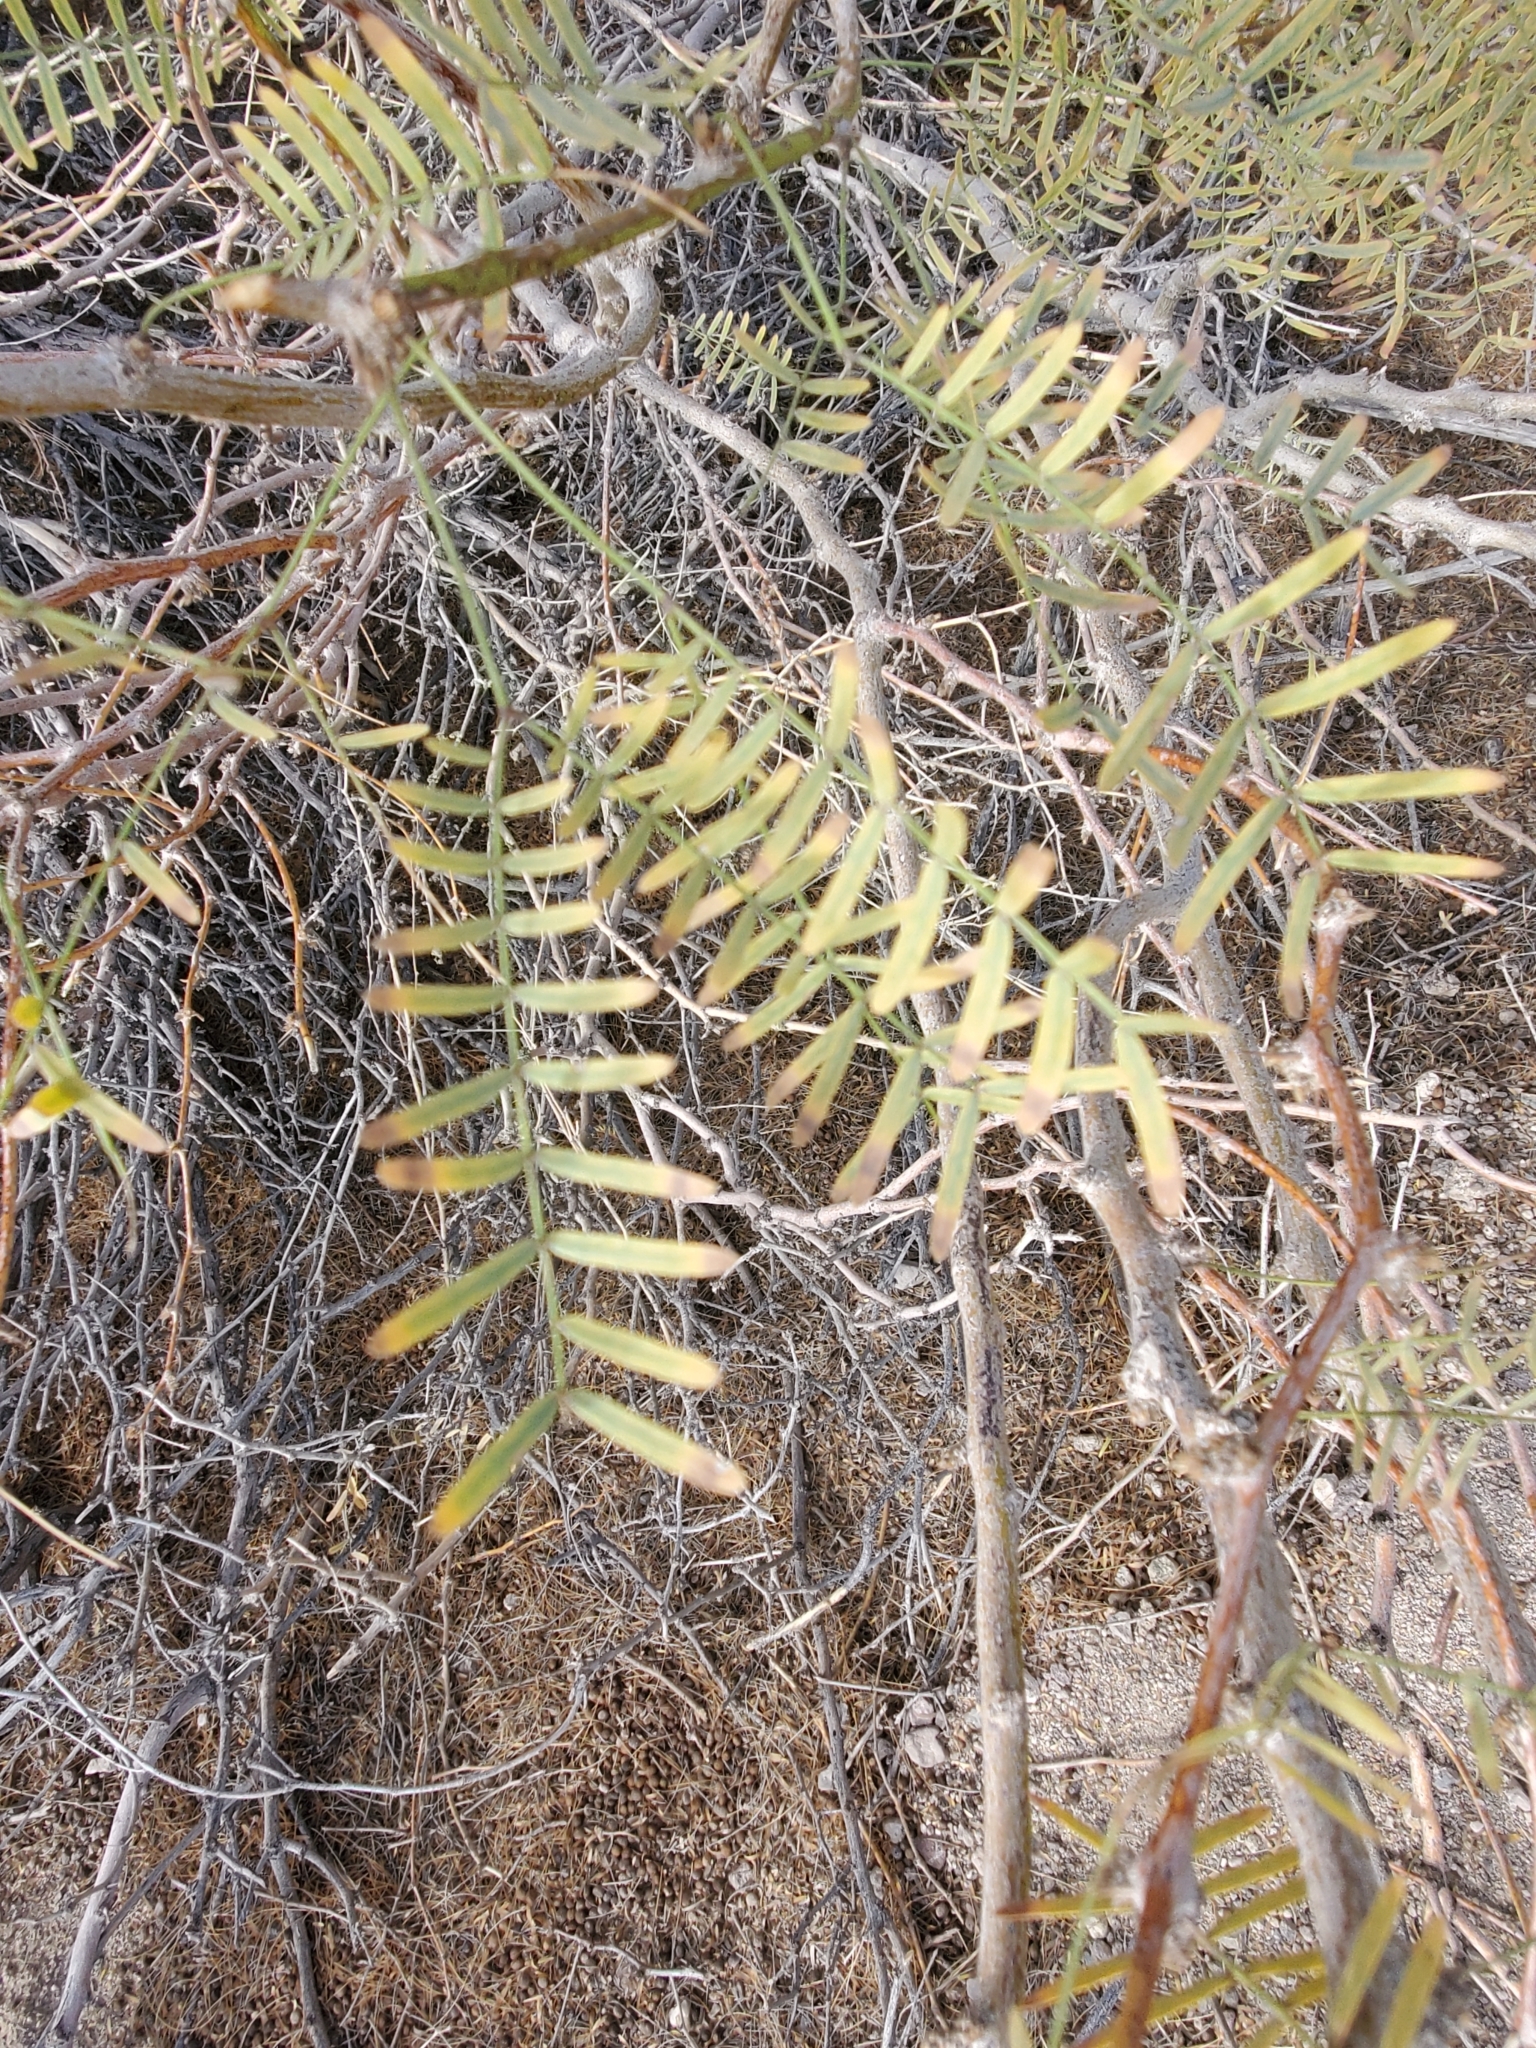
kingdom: Plantae
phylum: Tracheophyta
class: Magnoliopsida
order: Fabales
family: Fabaceae
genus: Prosopis
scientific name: Prosopis pubescens
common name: Screw-bean
